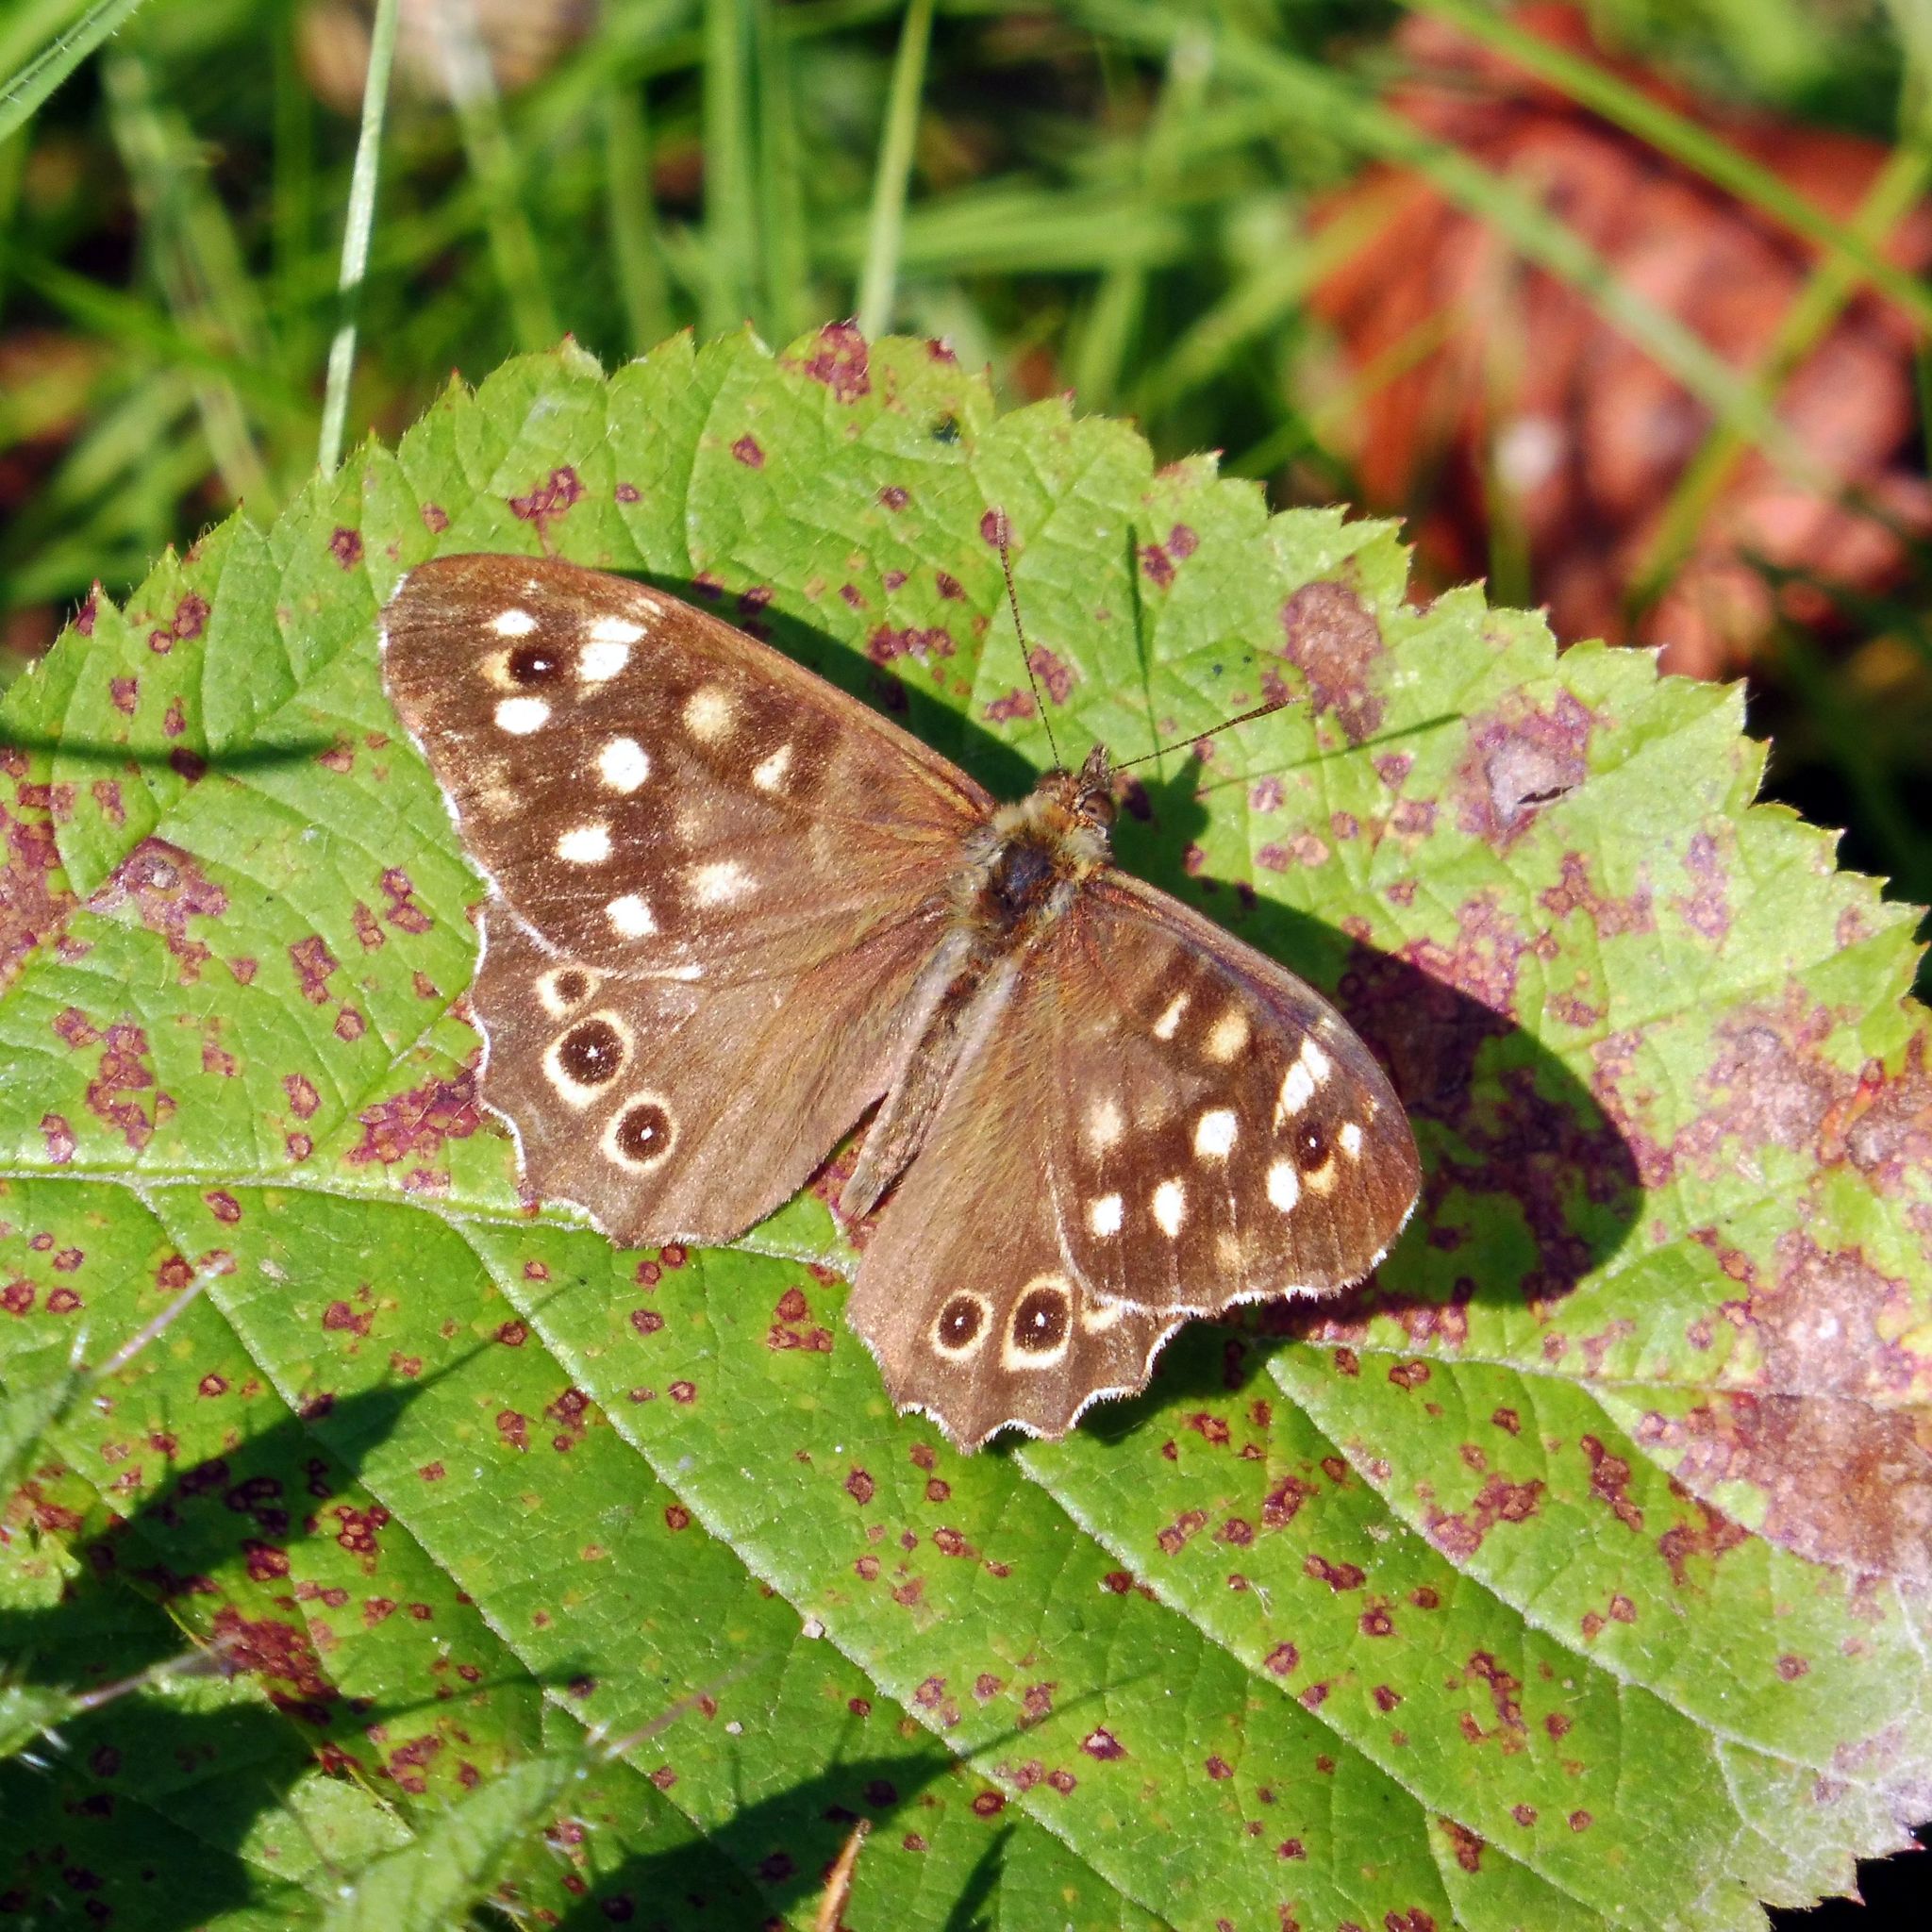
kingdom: Animalia
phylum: Arthropoda
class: Insecta
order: Lepidoptera
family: Nymphalidae
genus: Pararge
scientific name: Pararge aegeria
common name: Speckled wood
